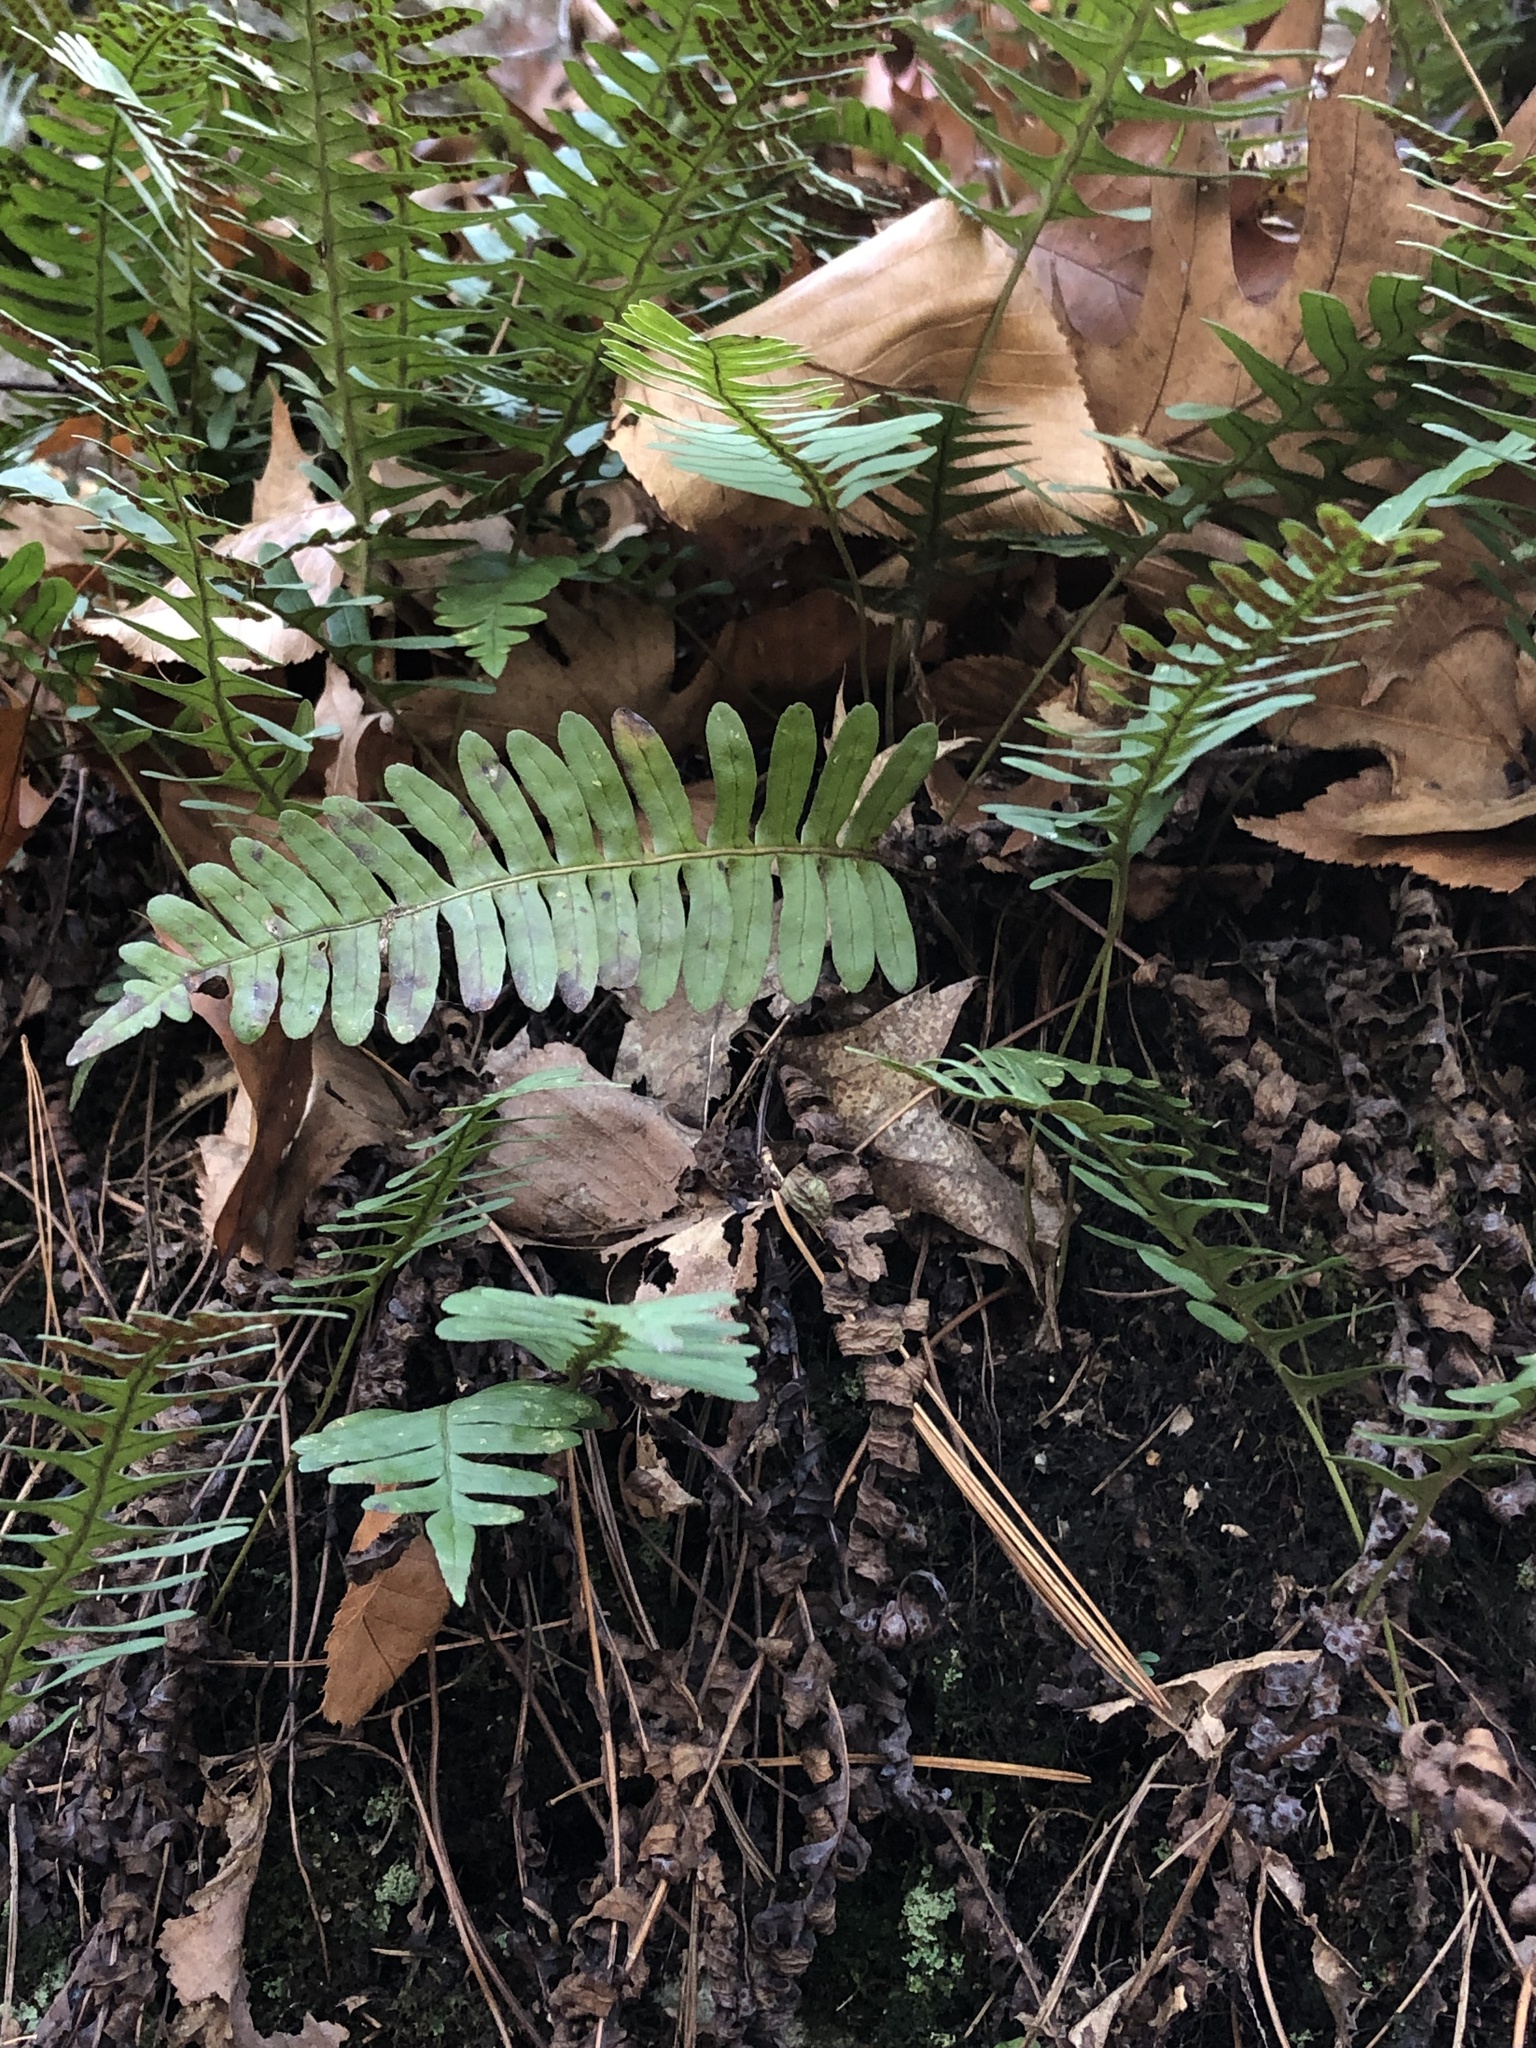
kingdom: Plantae
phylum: Tracheophyta
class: Polypodiopsida
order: Polypodiales
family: Polypodiaceae
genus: Polypodium
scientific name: Polypodium virginianum
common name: American wall fern
